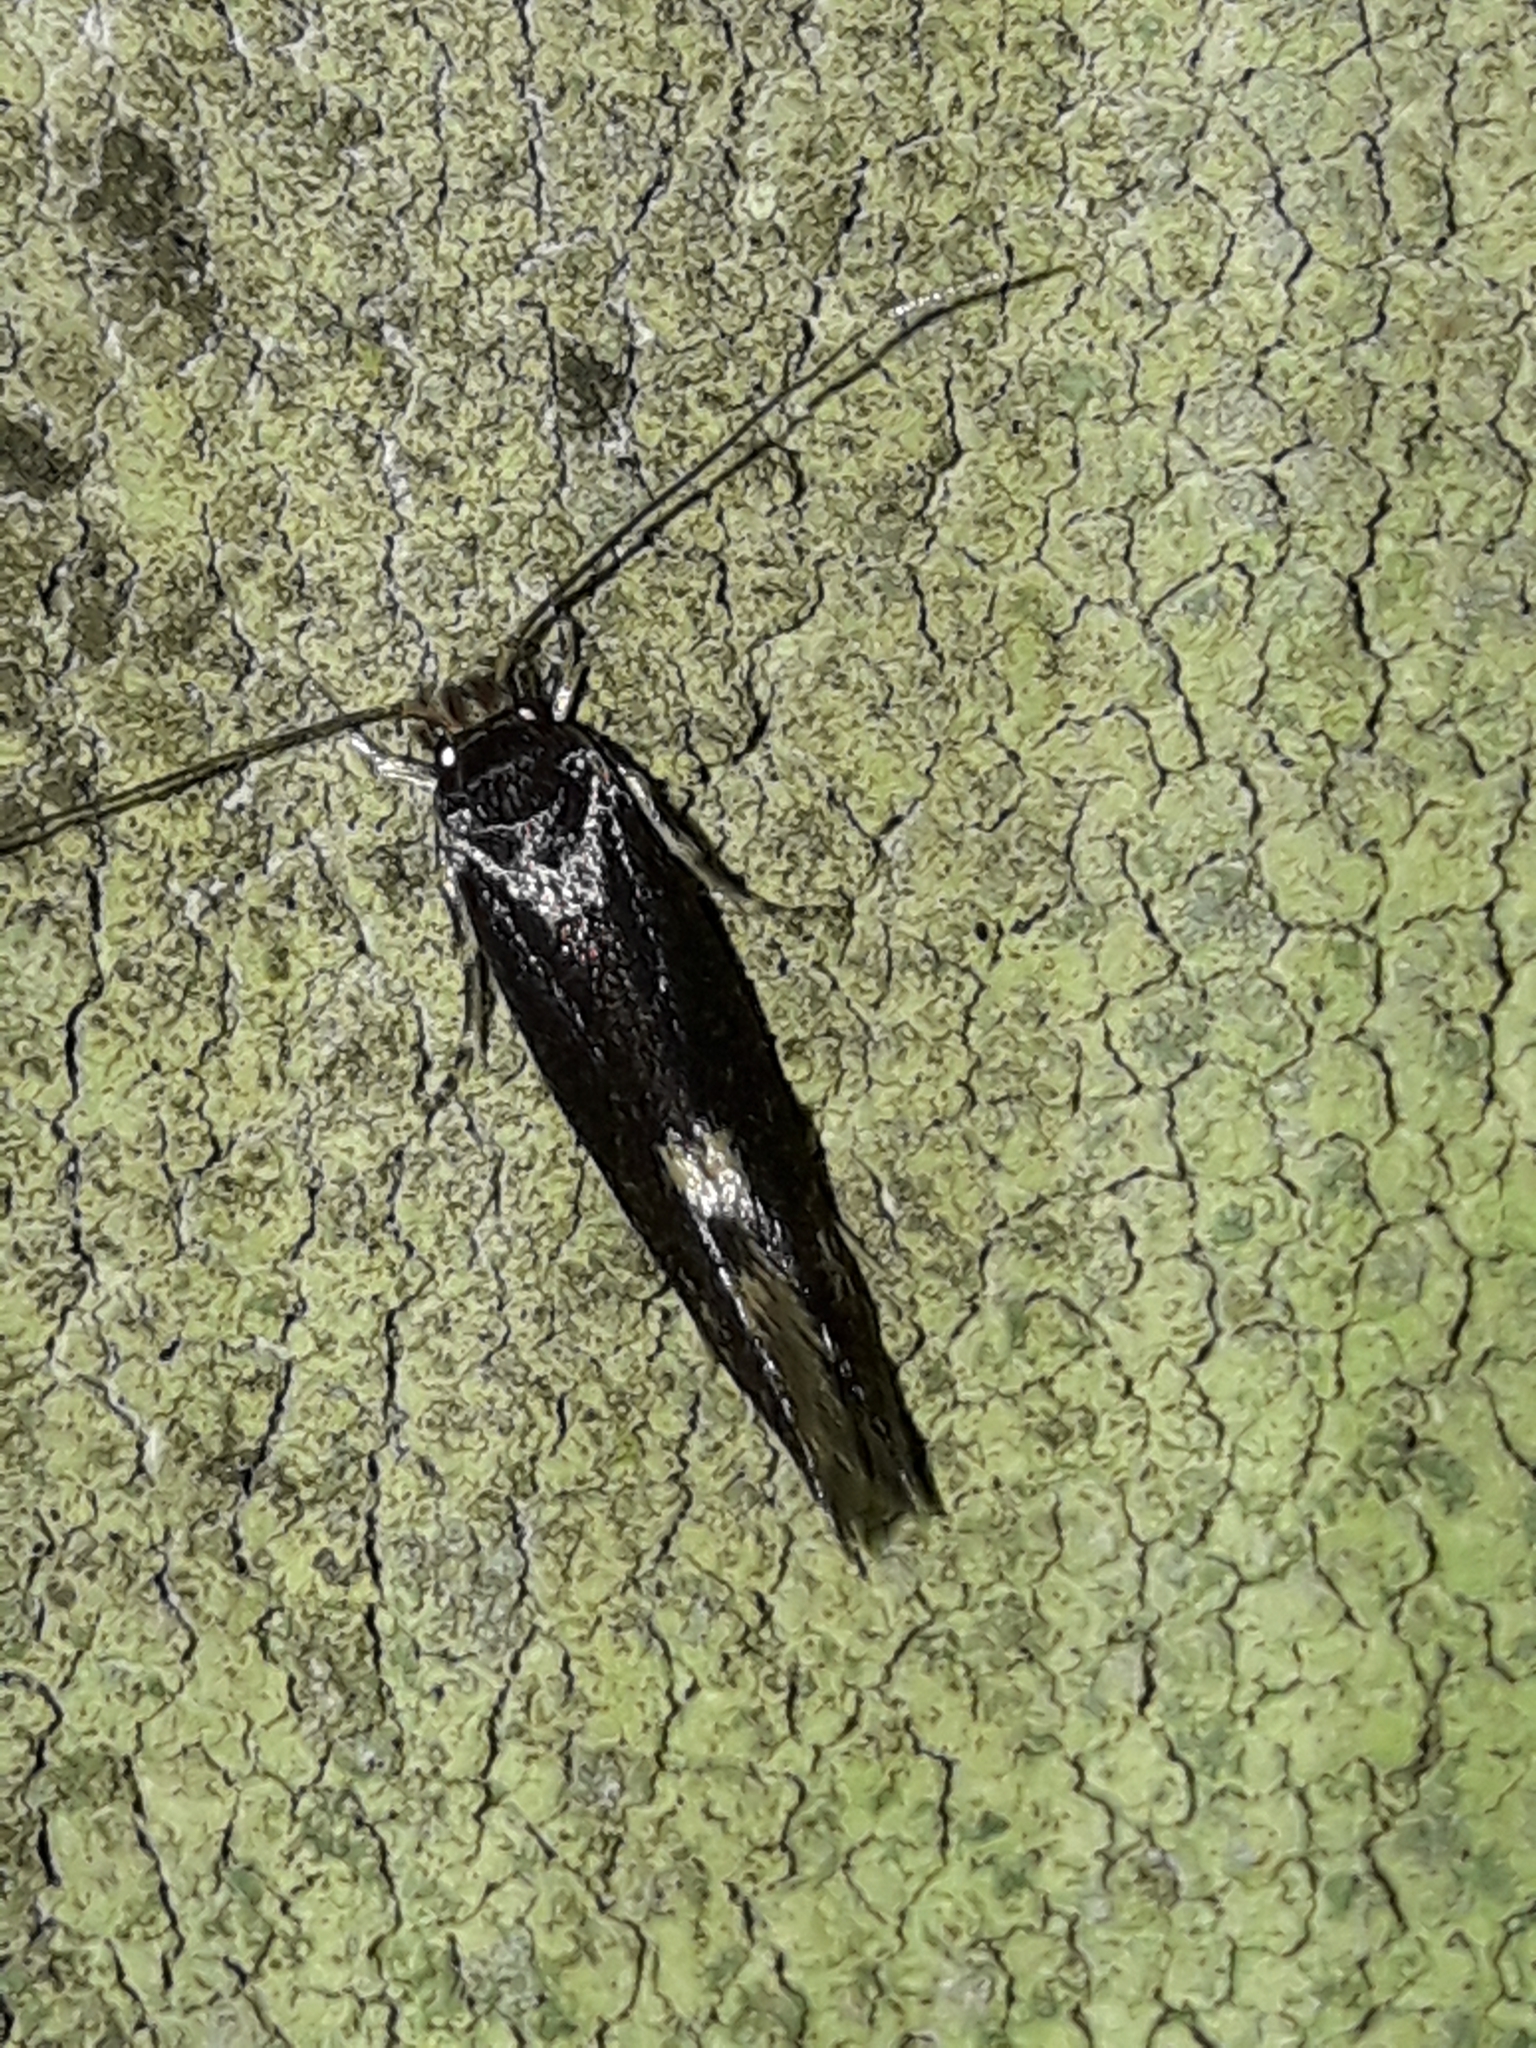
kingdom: Animalia
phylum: Arthropoda
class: Insecta
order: Lepidoptera
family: Tineidae
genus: Opogona
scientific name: Opogona omoscopa
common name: Moth
